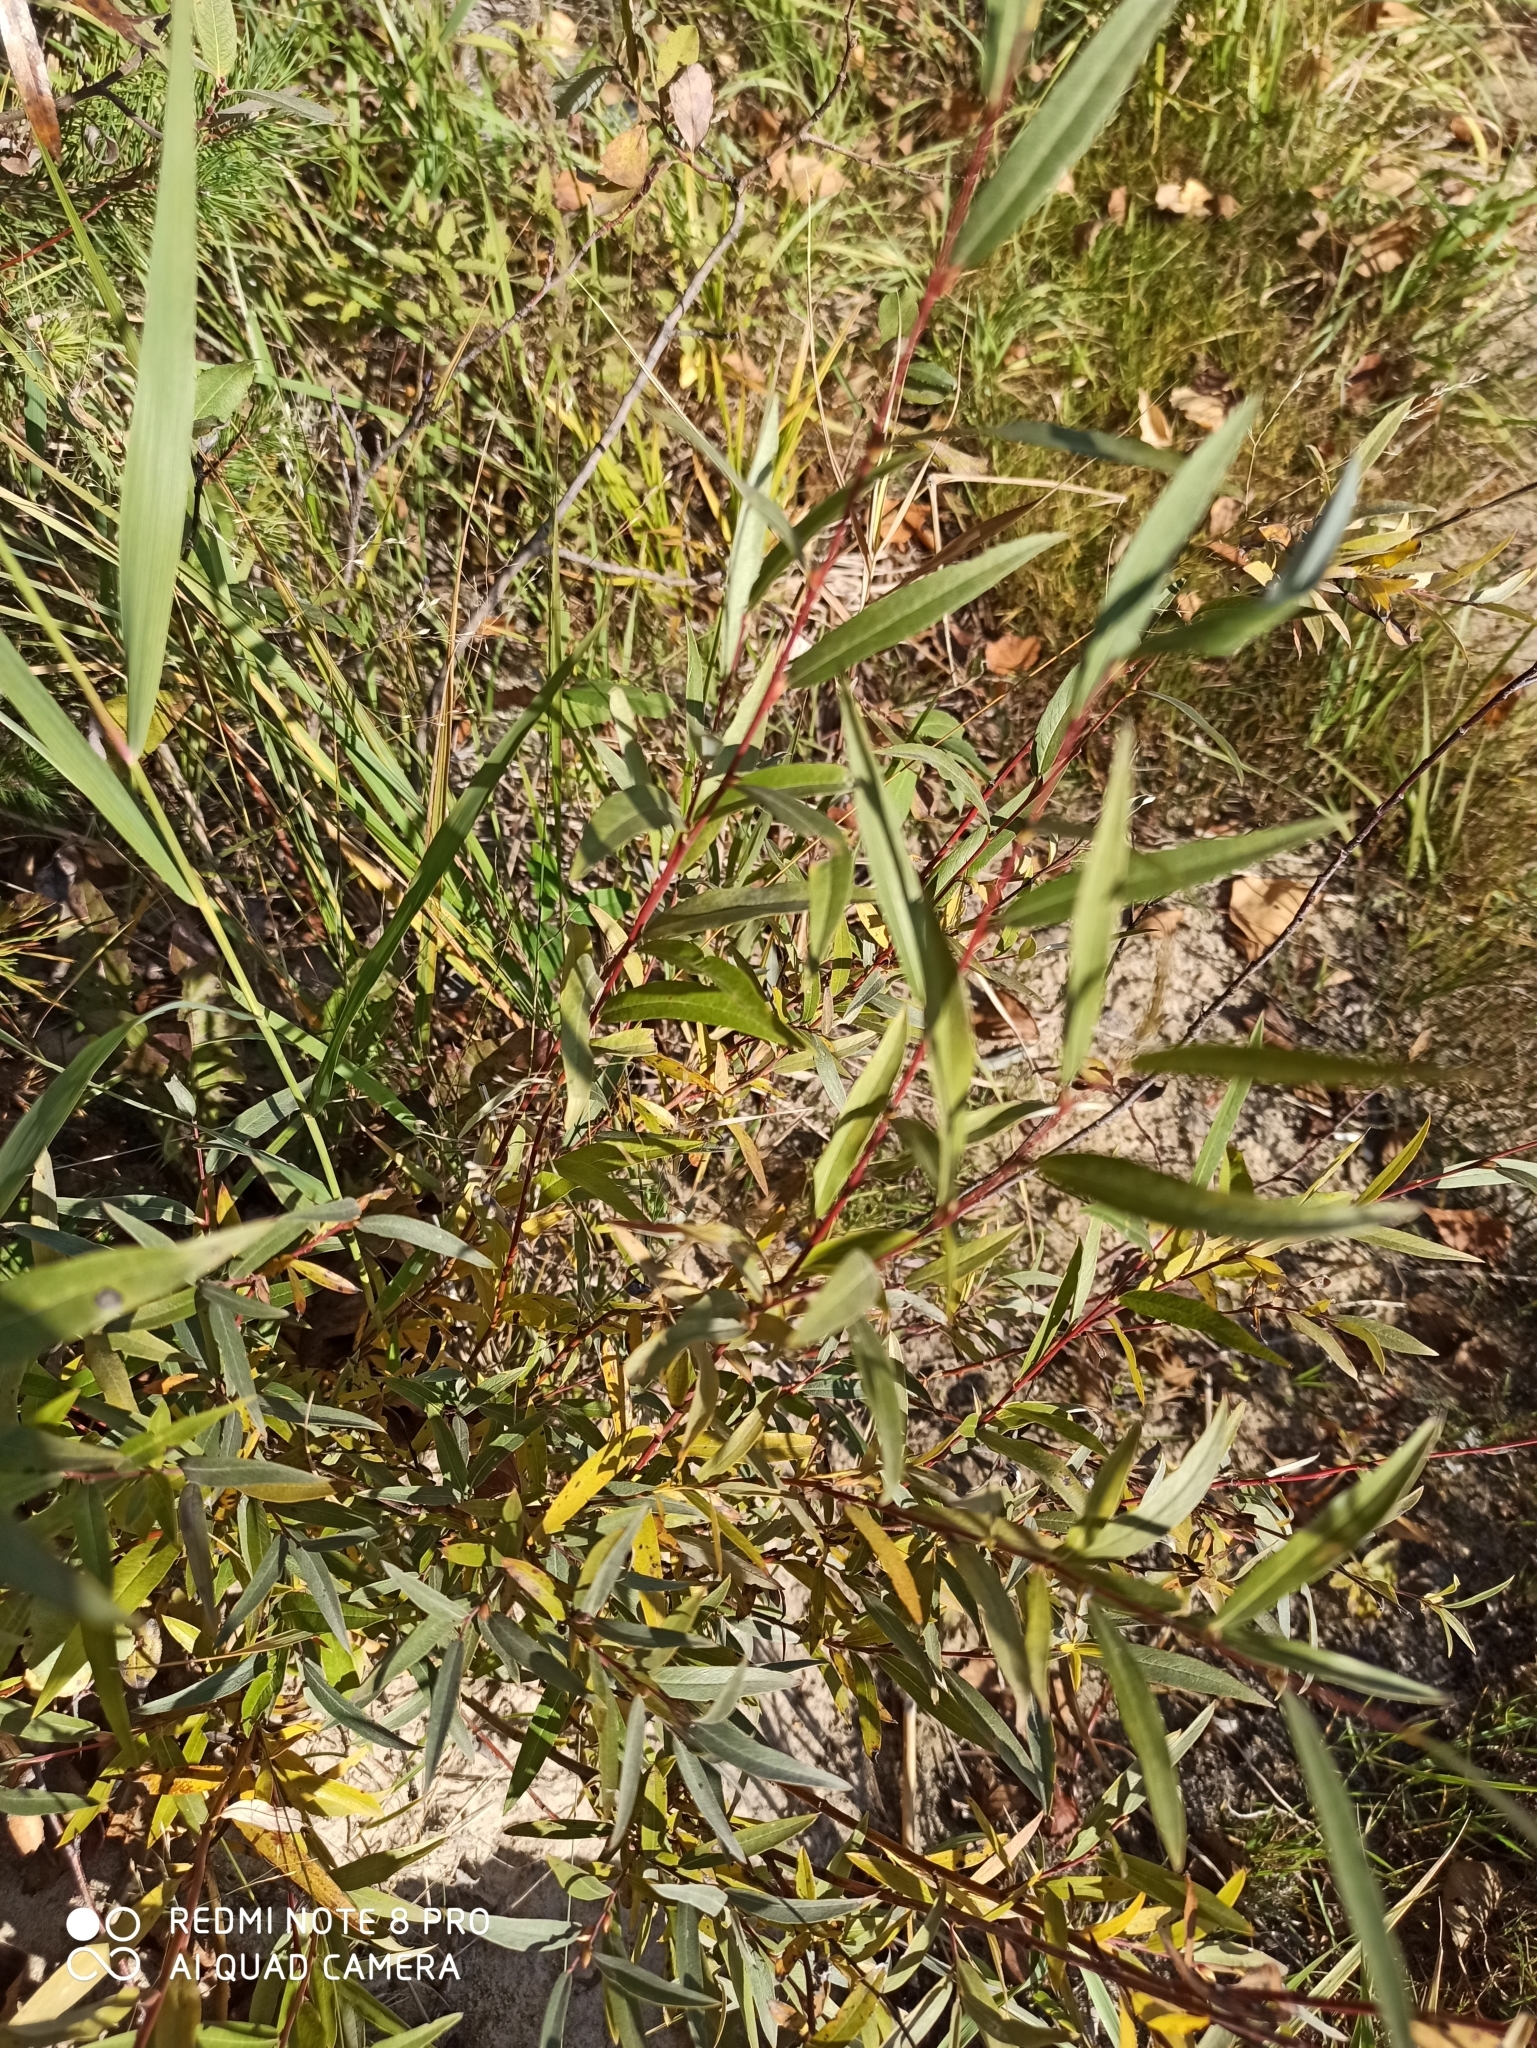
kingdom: Plantae
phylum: Tracheophyta
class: Magnoliopsida
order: Malpighiales
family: Salicaceae
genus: Salix
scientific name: Salix rosmarinifolia
